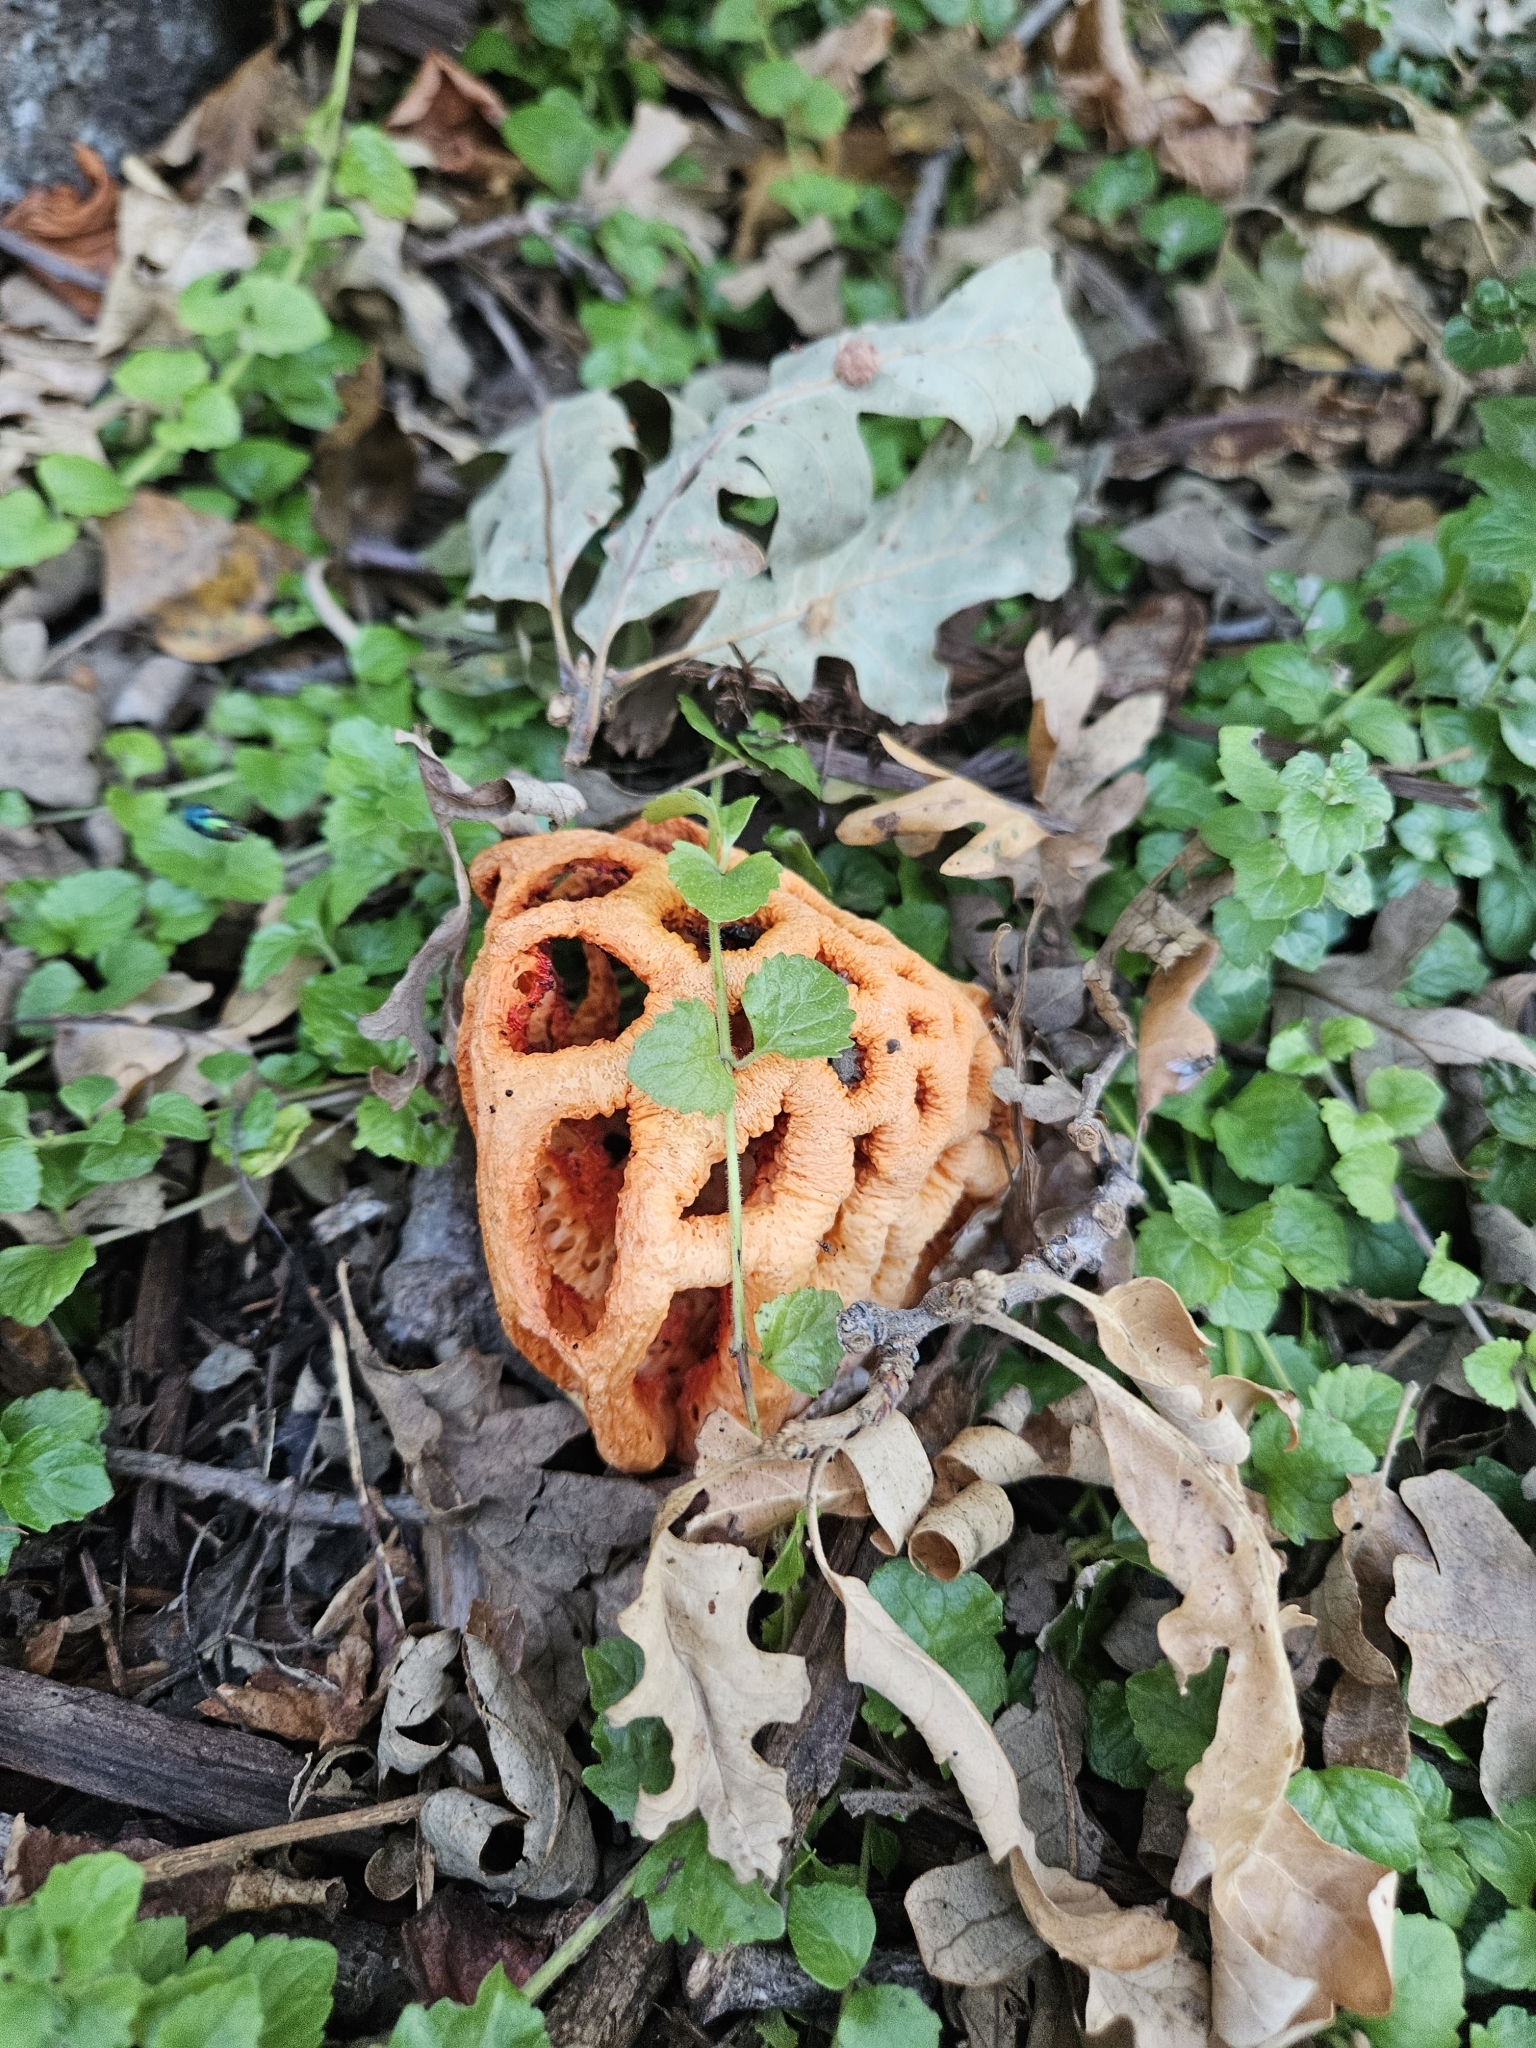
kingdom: Fungi
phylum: Basidiomycota
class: Agaricomycetes
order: Phallales
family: Phallaceae
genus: Clathrus
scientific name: Clathrus ruber
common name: Red cage
